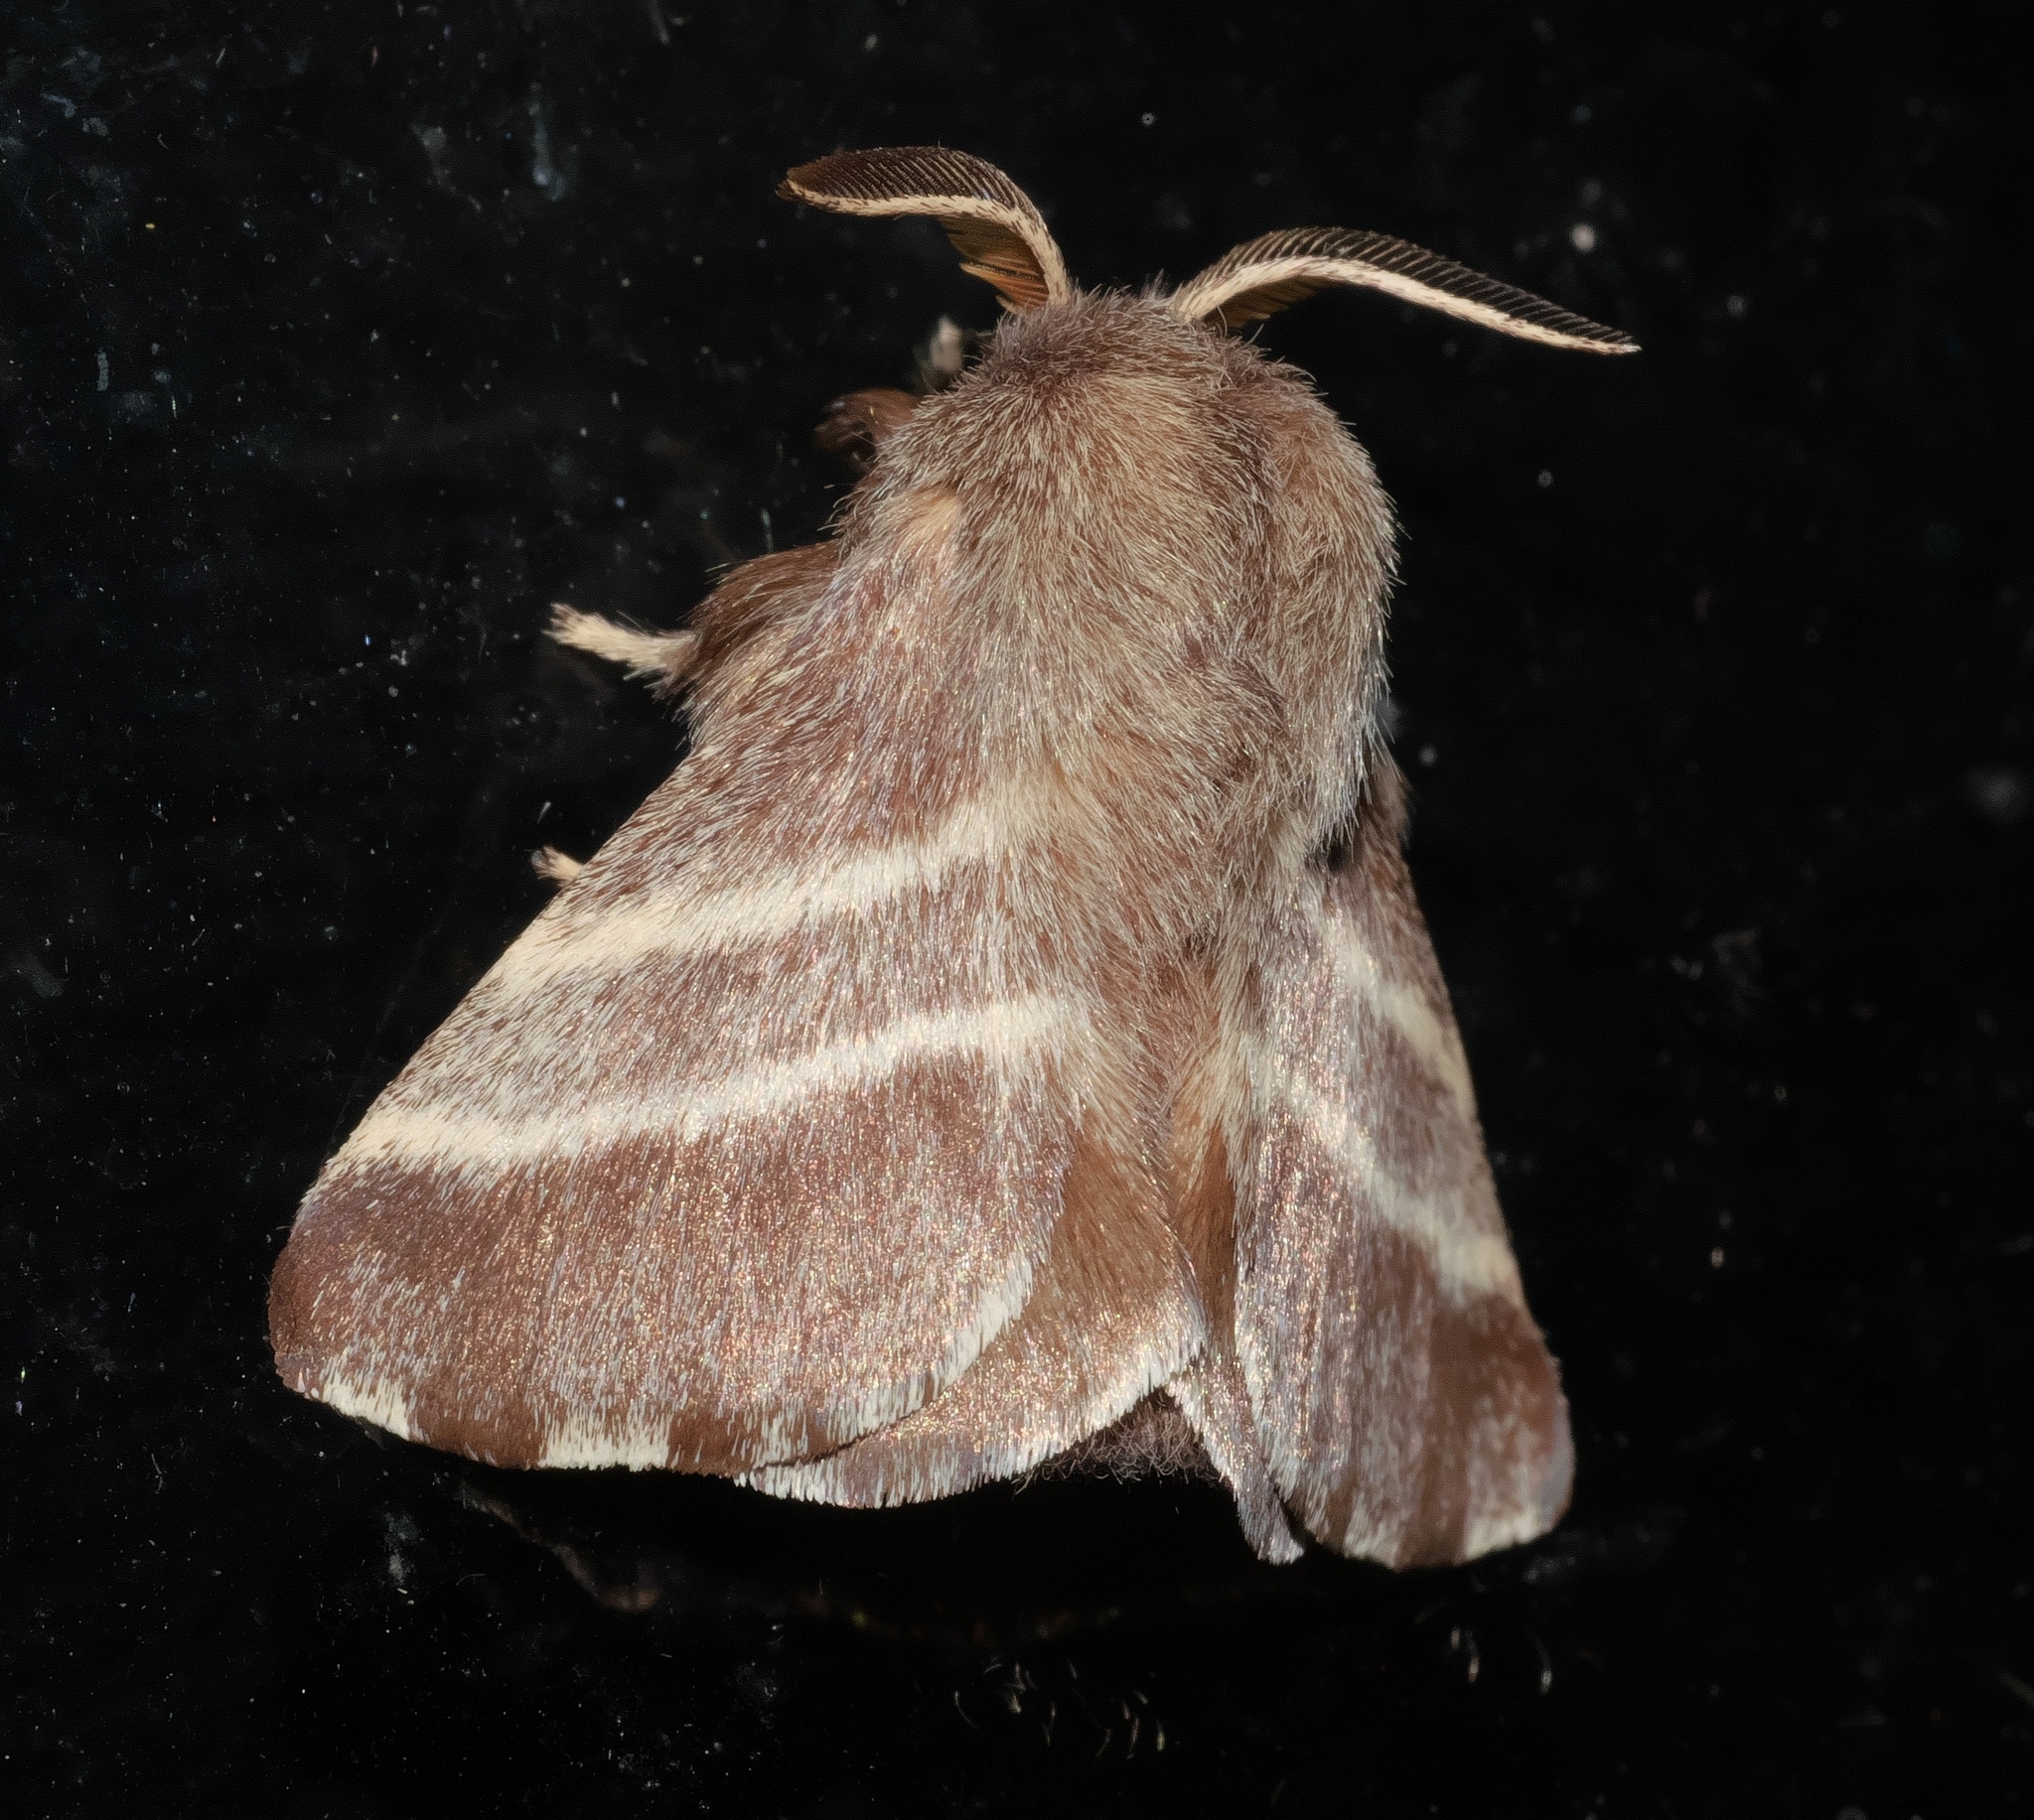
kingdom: Animalia
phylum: Arthropoda
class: Insecta
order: Lepidoptera
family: Lasiocampidae
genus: Malacosoma
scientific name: Malacosoma americana
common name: Eastern tent caterpillar moth
